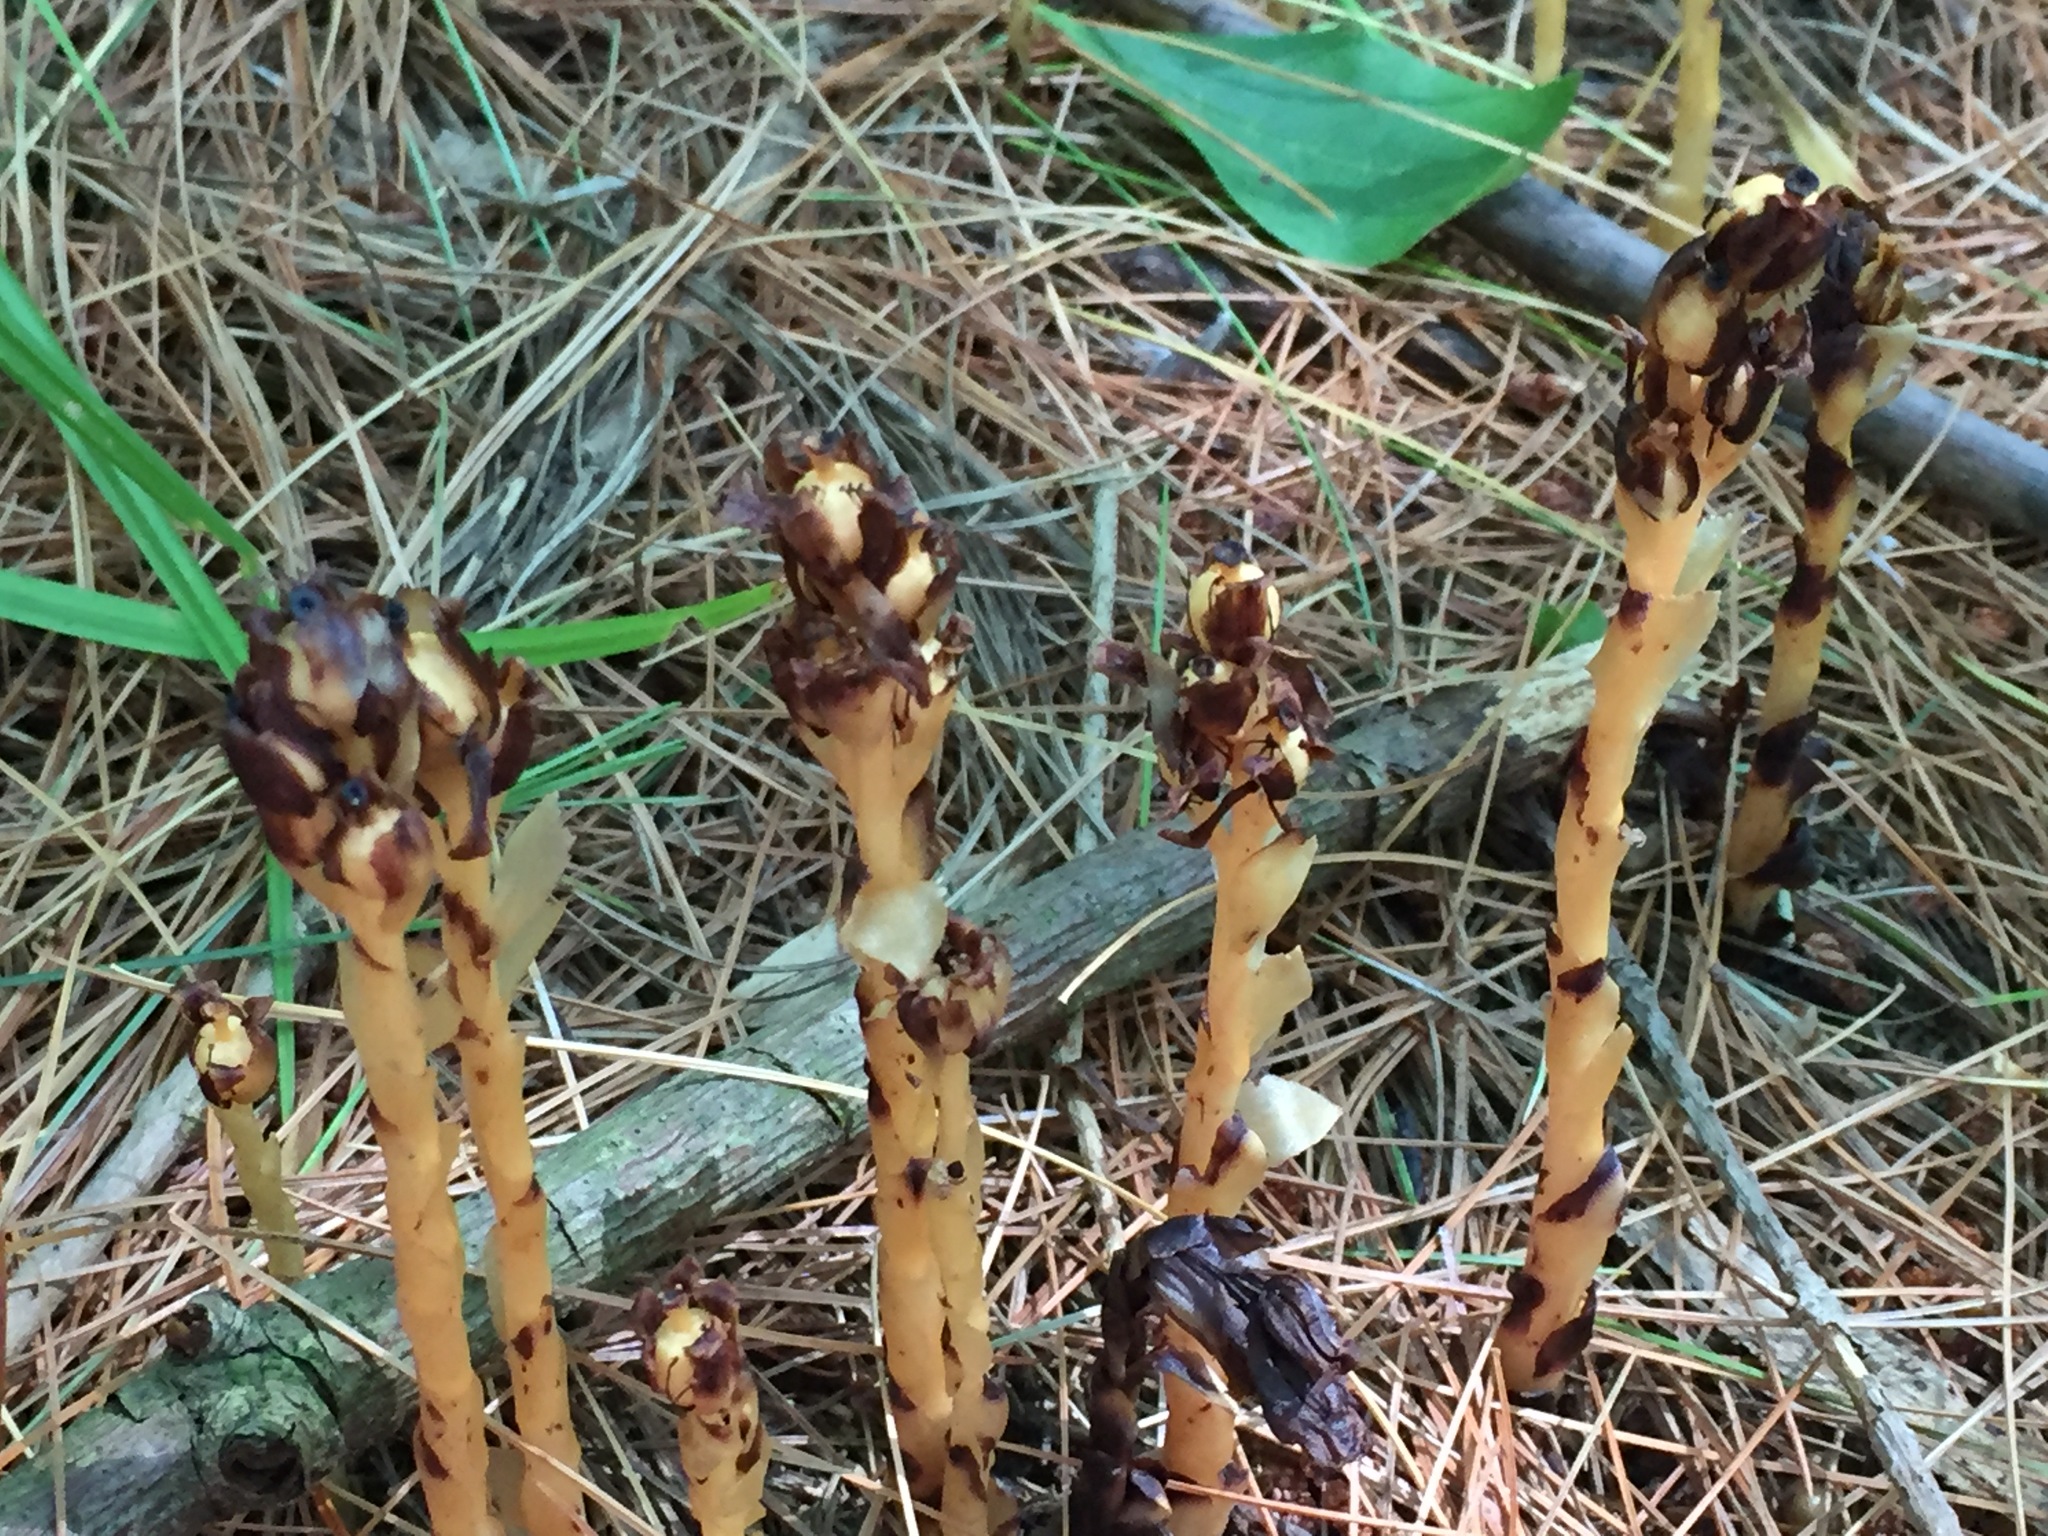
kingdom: Plantae
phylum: Tracheophyta
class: Magnoliopsida
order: Ericales
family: Ericaceae
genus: Hypopitys
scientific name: Hypopitys monotropa
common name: Yellow bird's-nest
